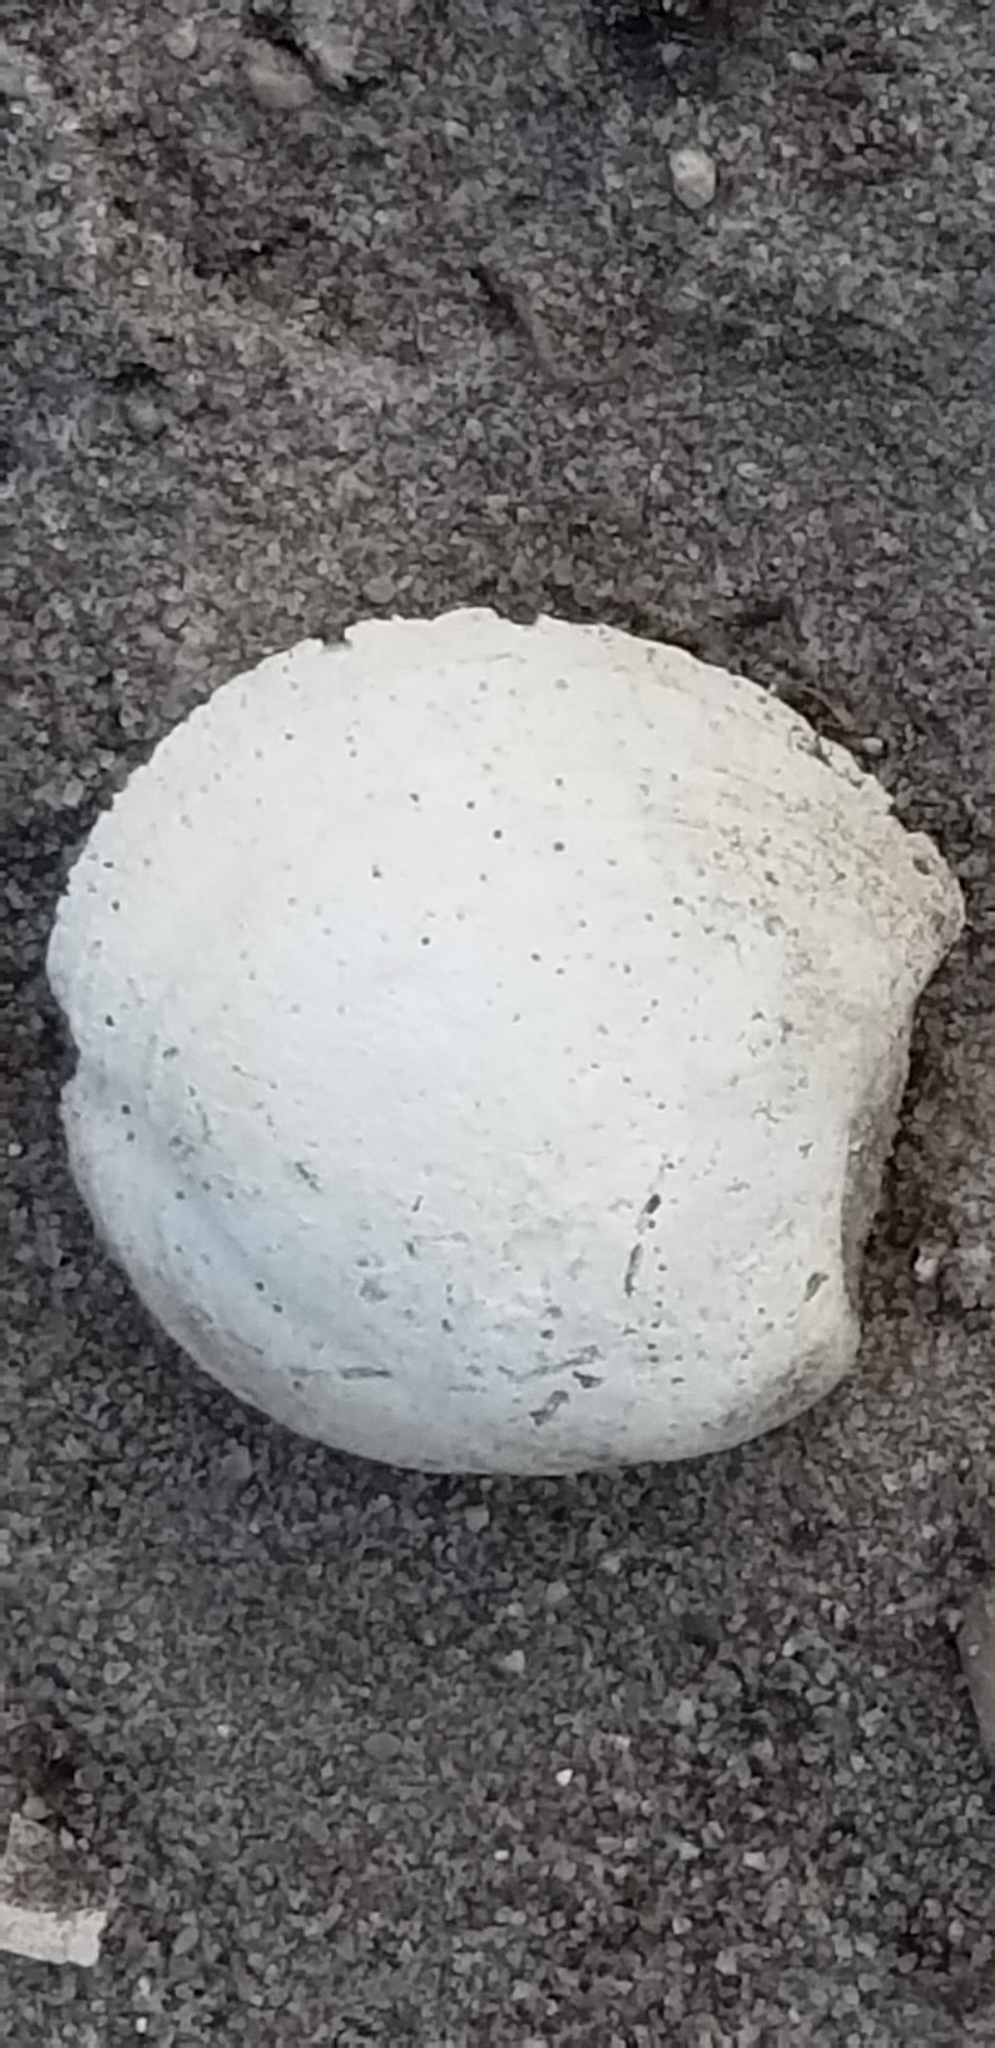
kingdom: Animalia
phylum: Mollusca
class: Bivalvia
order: Lucinida
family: Lucinidae
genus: Lucina
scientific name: Lucina pensylvanica
